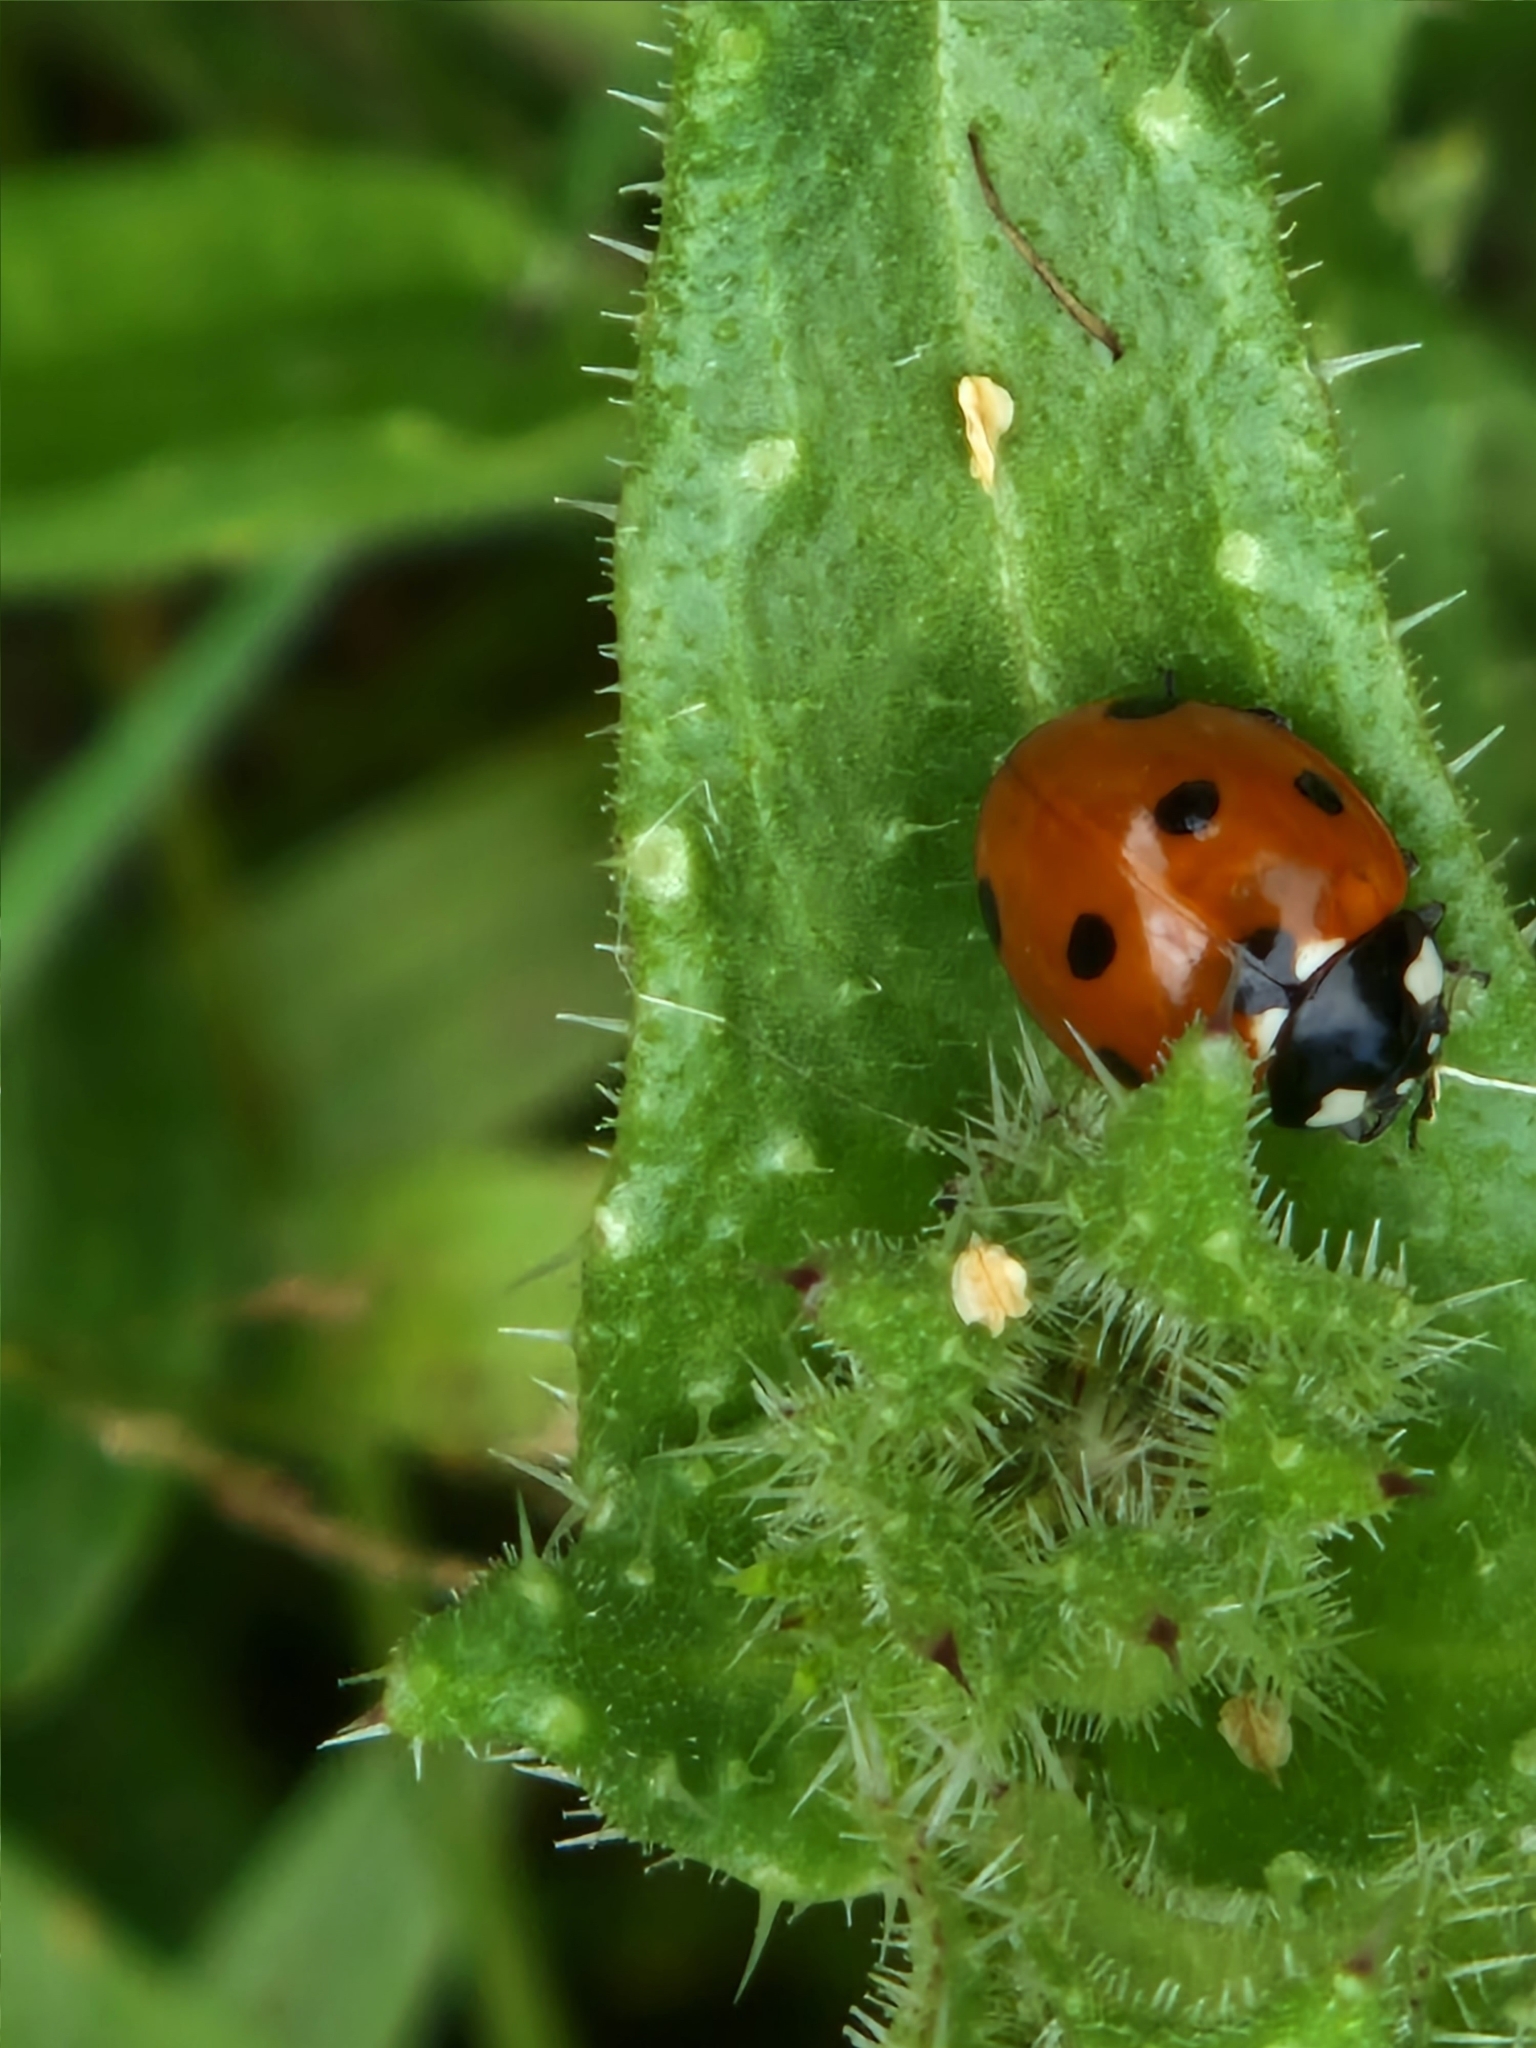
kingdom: Animalia
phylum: Arthropoda
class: Insecta
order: Coleoptera
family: Coccinellidae
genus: Coccinella
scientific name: Coccinella septempunctata
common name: Sevenspotted lady beetle
